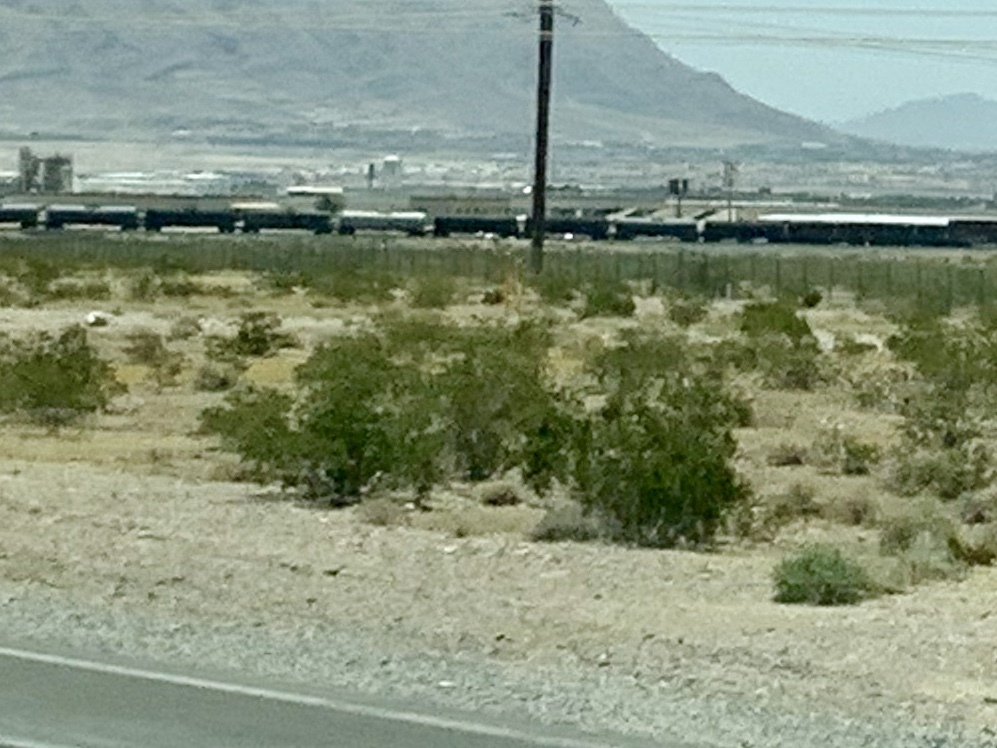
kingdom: Plantae
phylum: Tracheophyta
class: Magnoliopsida
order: Zygophyllales
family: Zygophyllaceae
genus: Larrea
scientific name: Larrea tridentata
